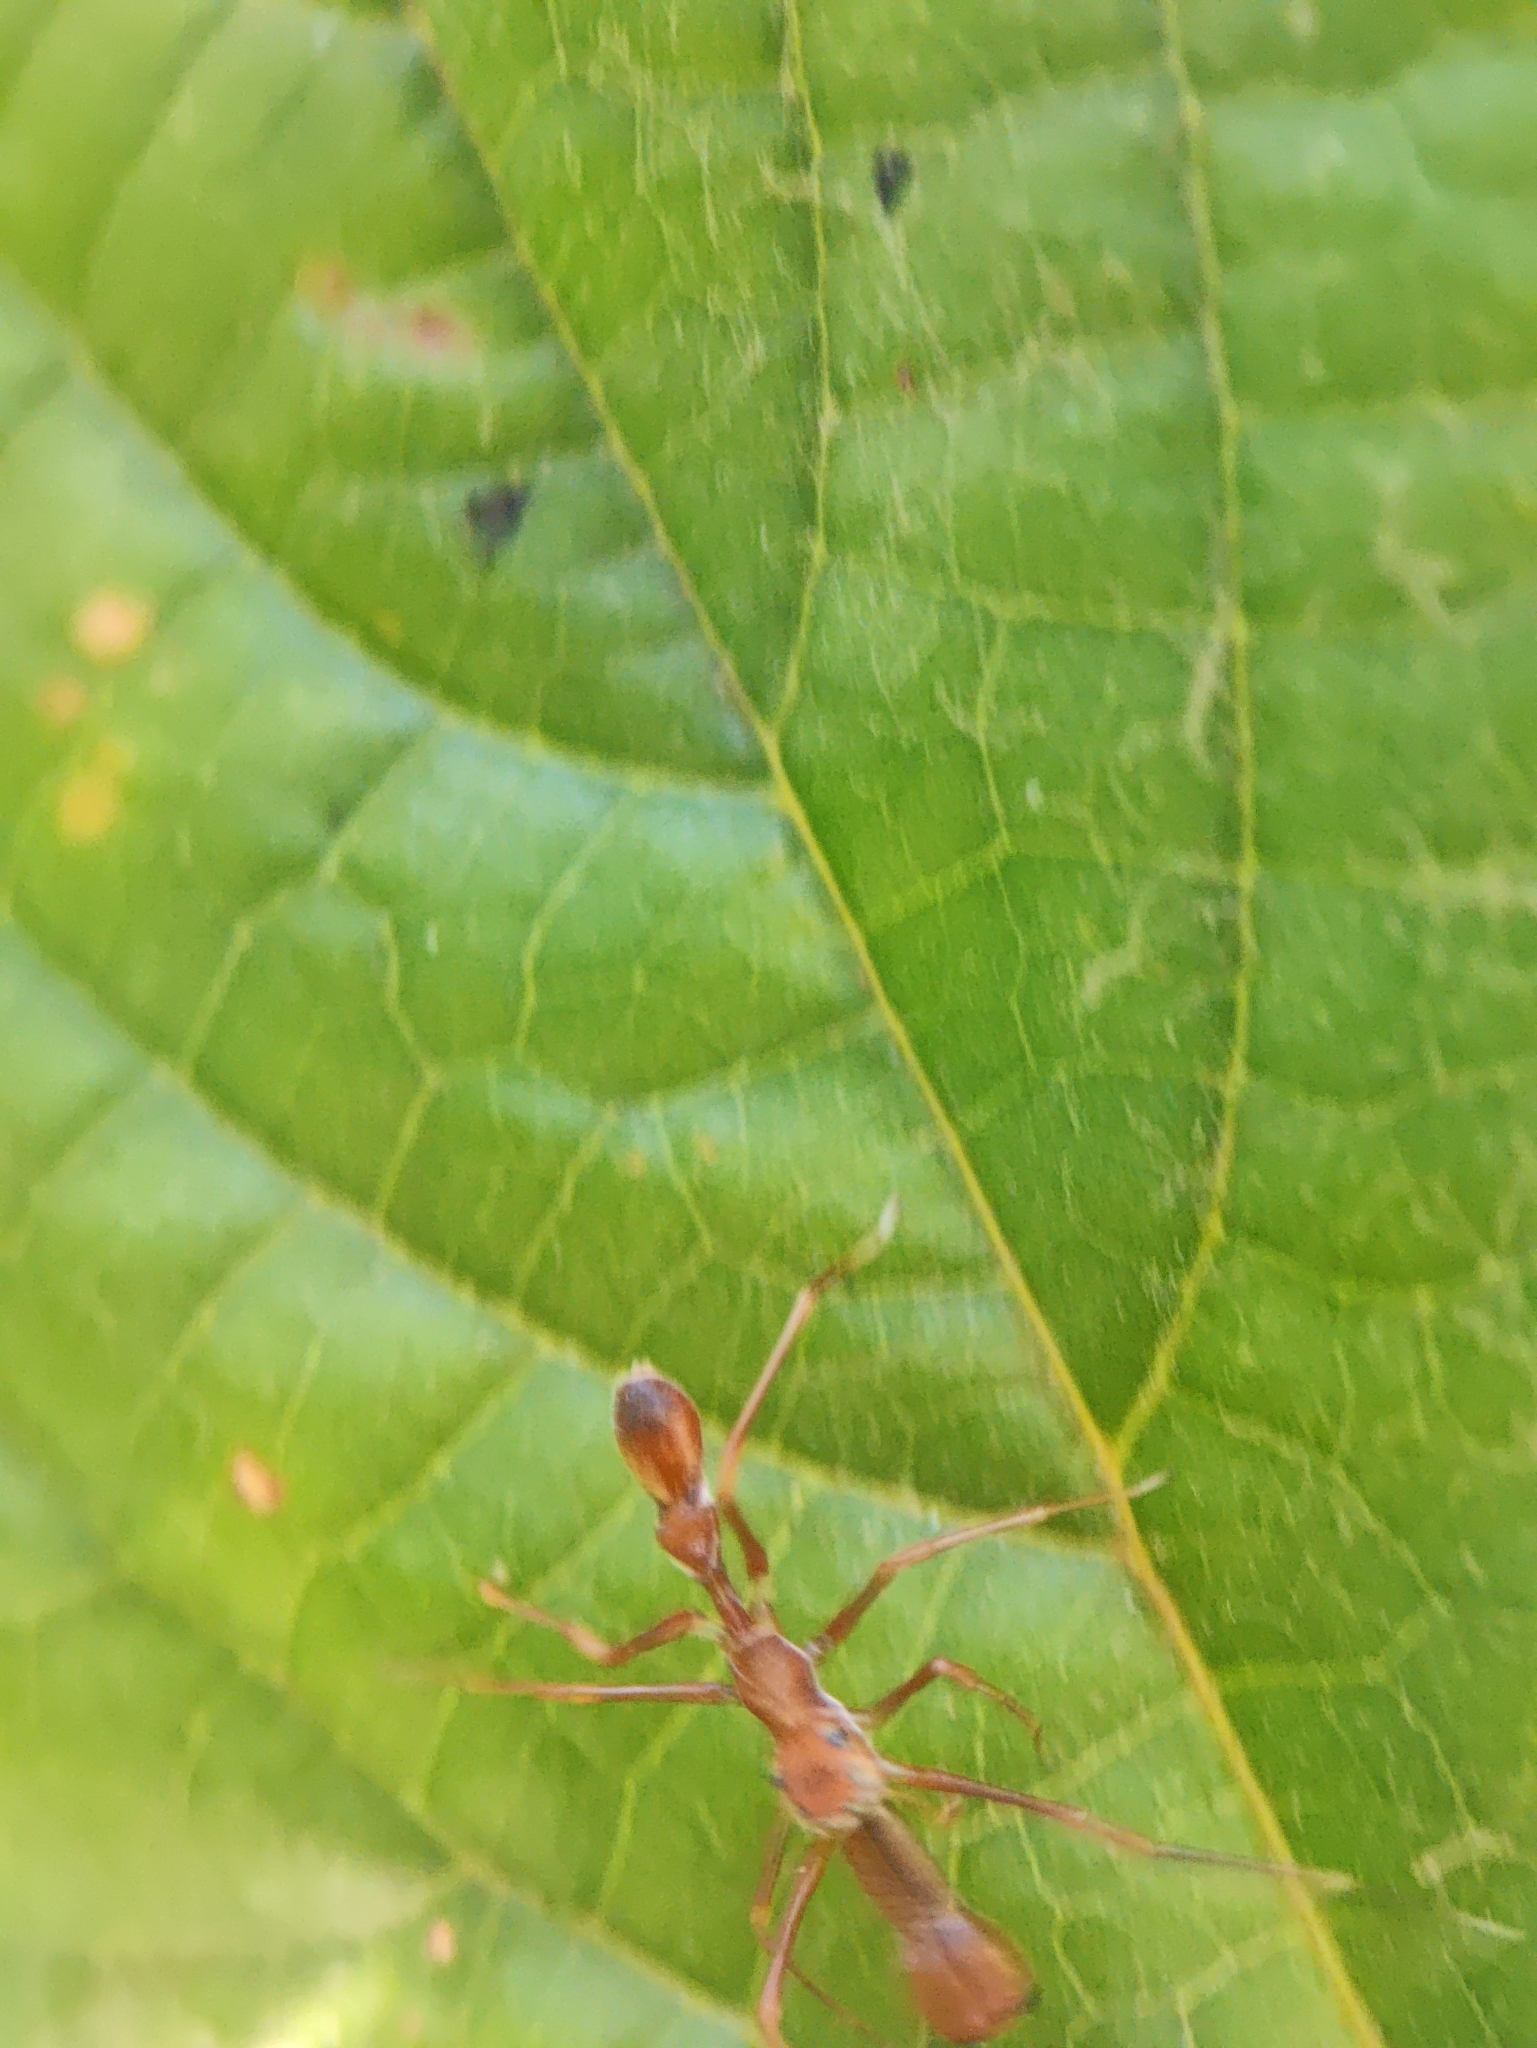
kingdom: Animalia
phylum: Arthropoda
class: Arachnida
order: Araneae
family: Salticidae
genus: Myrmaplata
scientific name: Myrmaplata plataleoides
